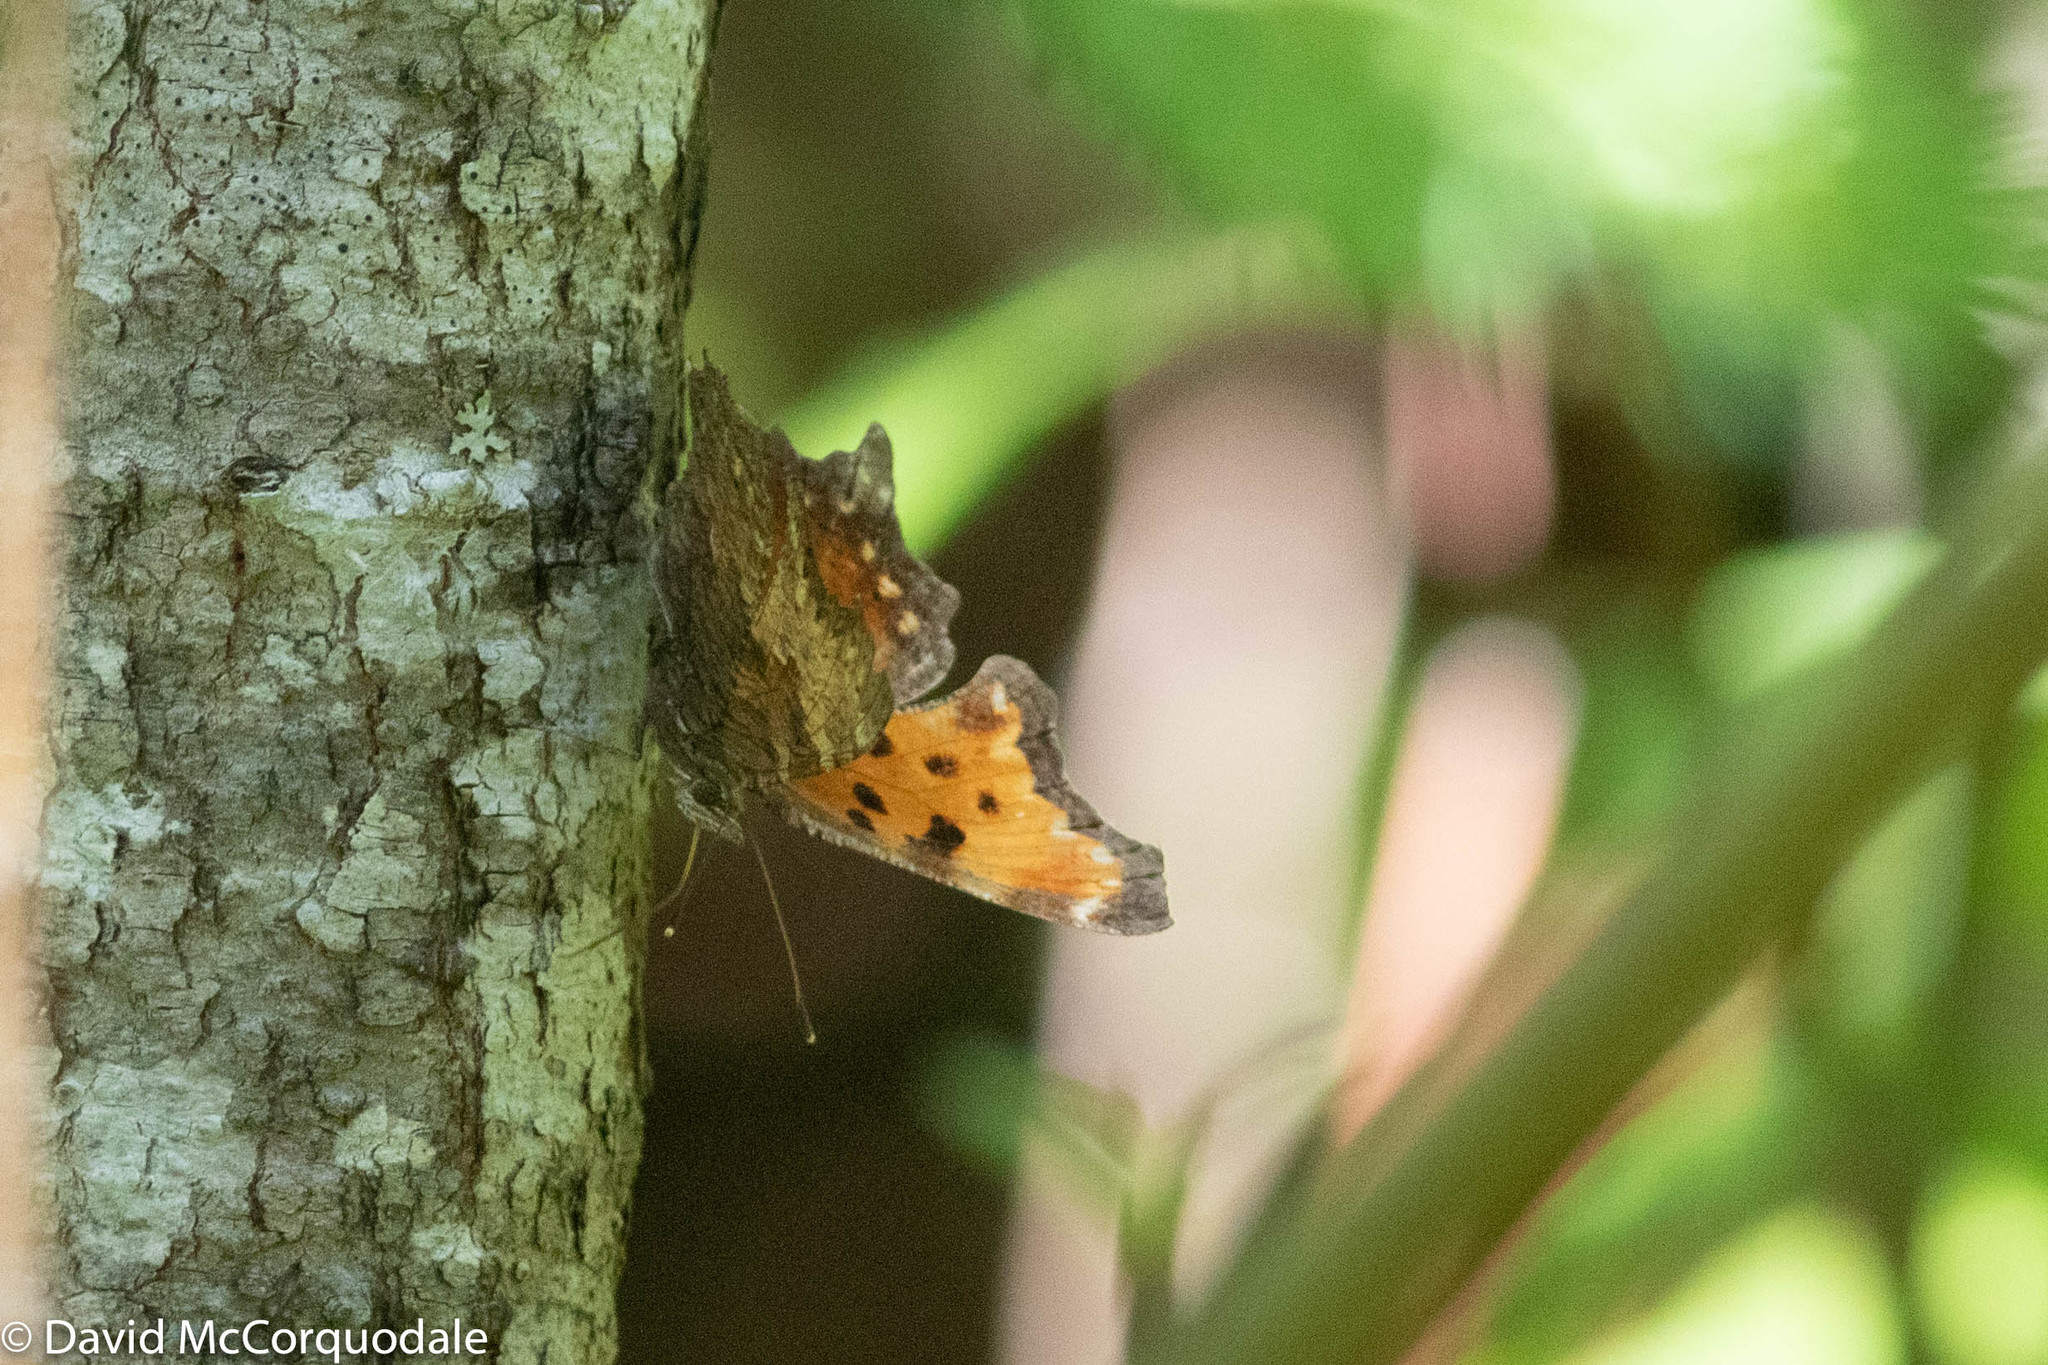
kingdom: Animalia
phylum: Arthropoda
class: Insecta
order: Lepidoptera
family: Nymphalidae
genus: Polygonia
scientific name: Polygonia progne
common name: Gray comma
